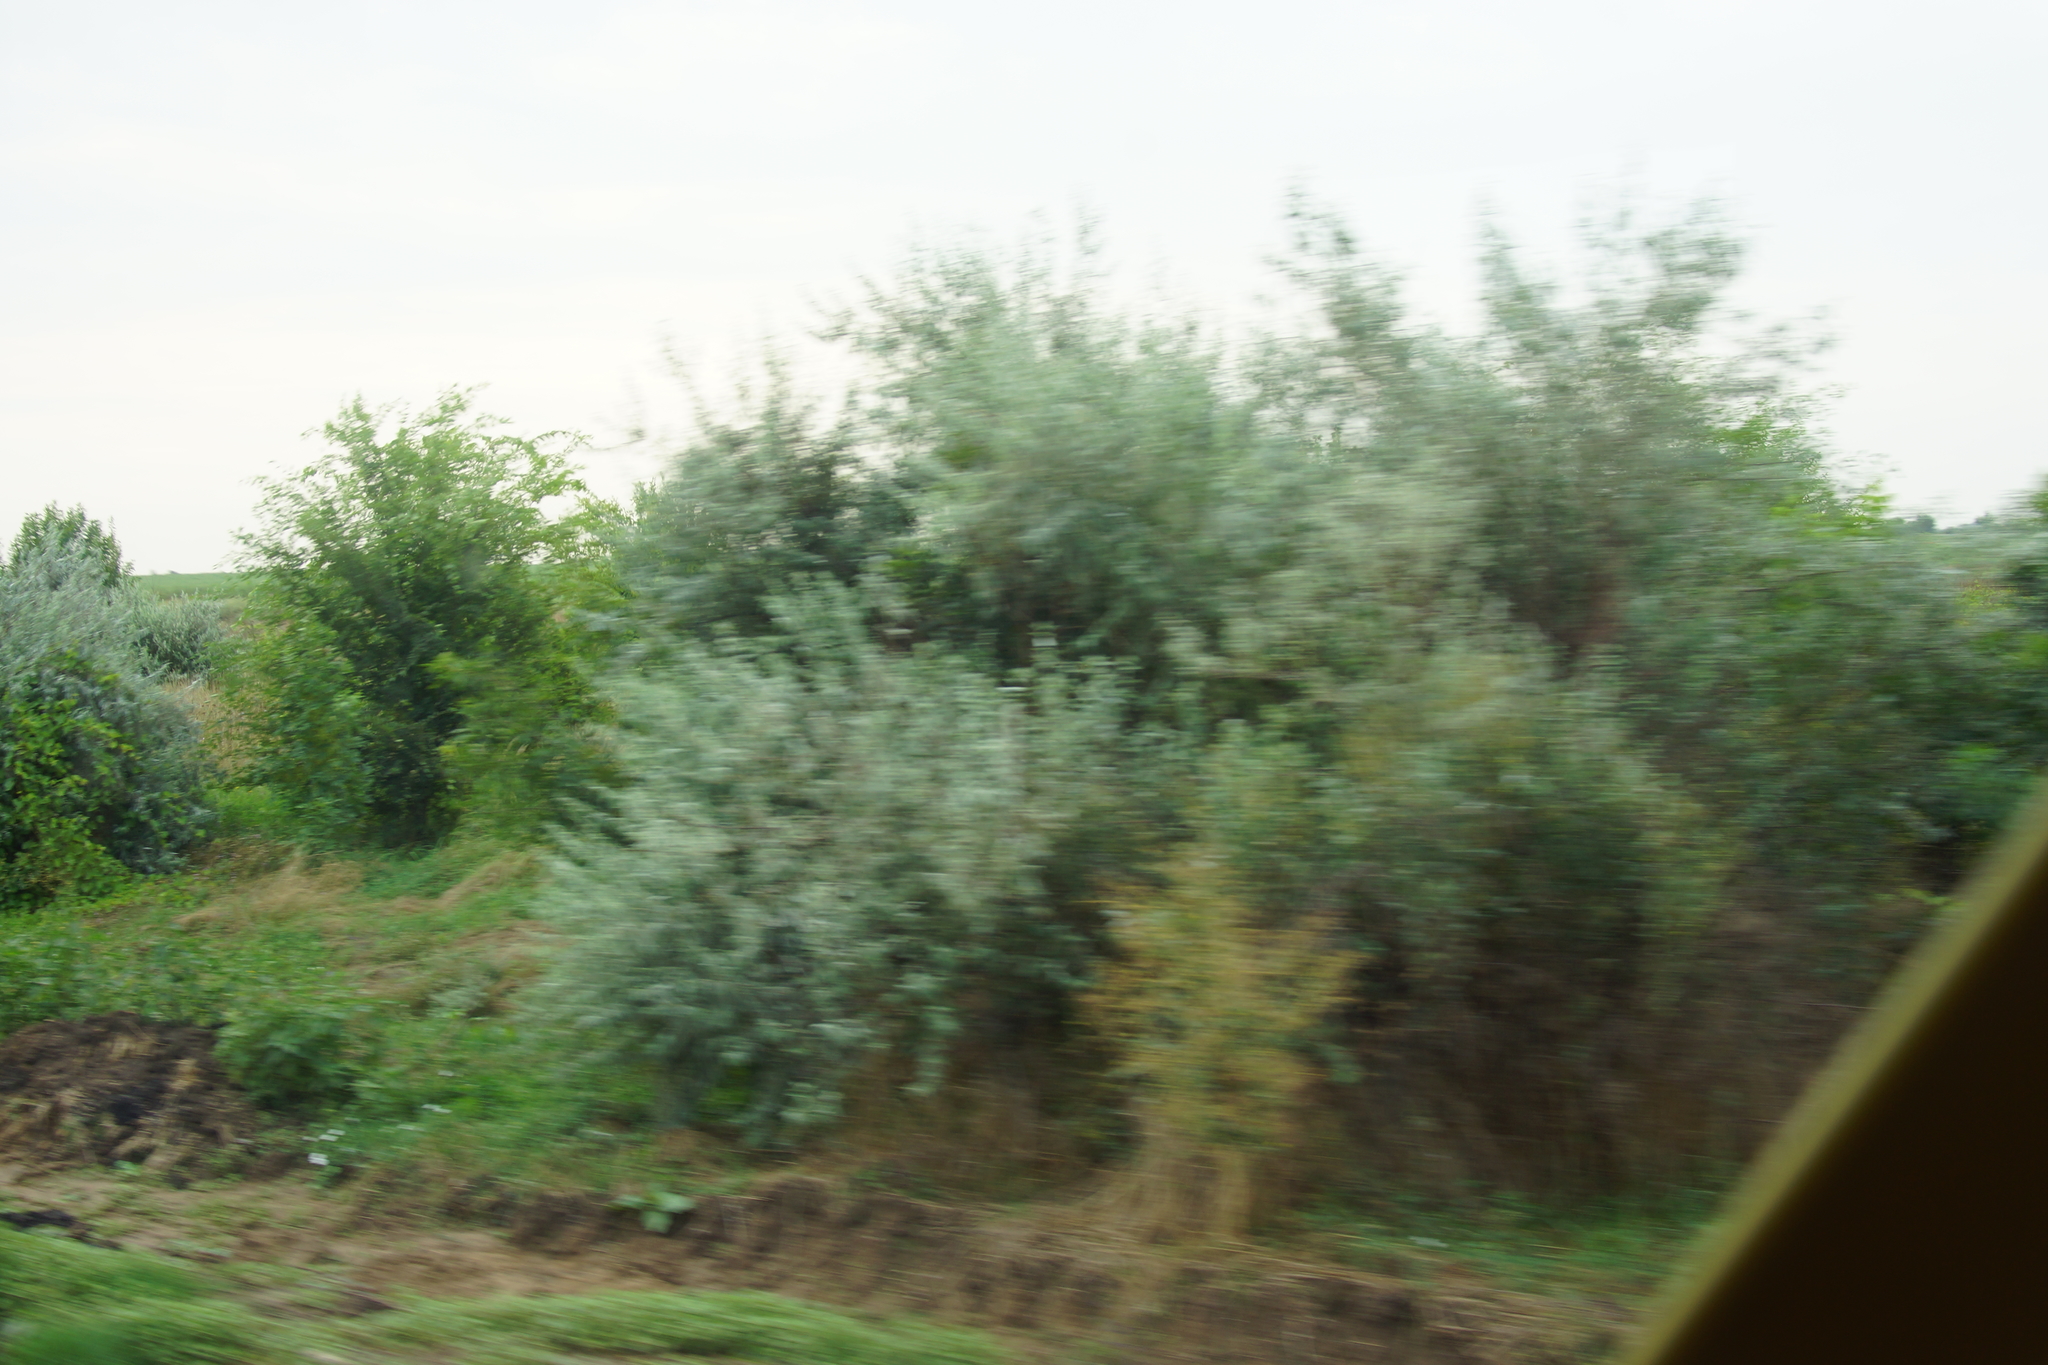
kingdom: Plantae
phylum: Tracheophyta
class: Magnoliopsida
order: Rosales
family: Elaeagnaceae
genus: Elaeagnus
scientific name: Elaeagnus angustifolia
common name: Russian olive
